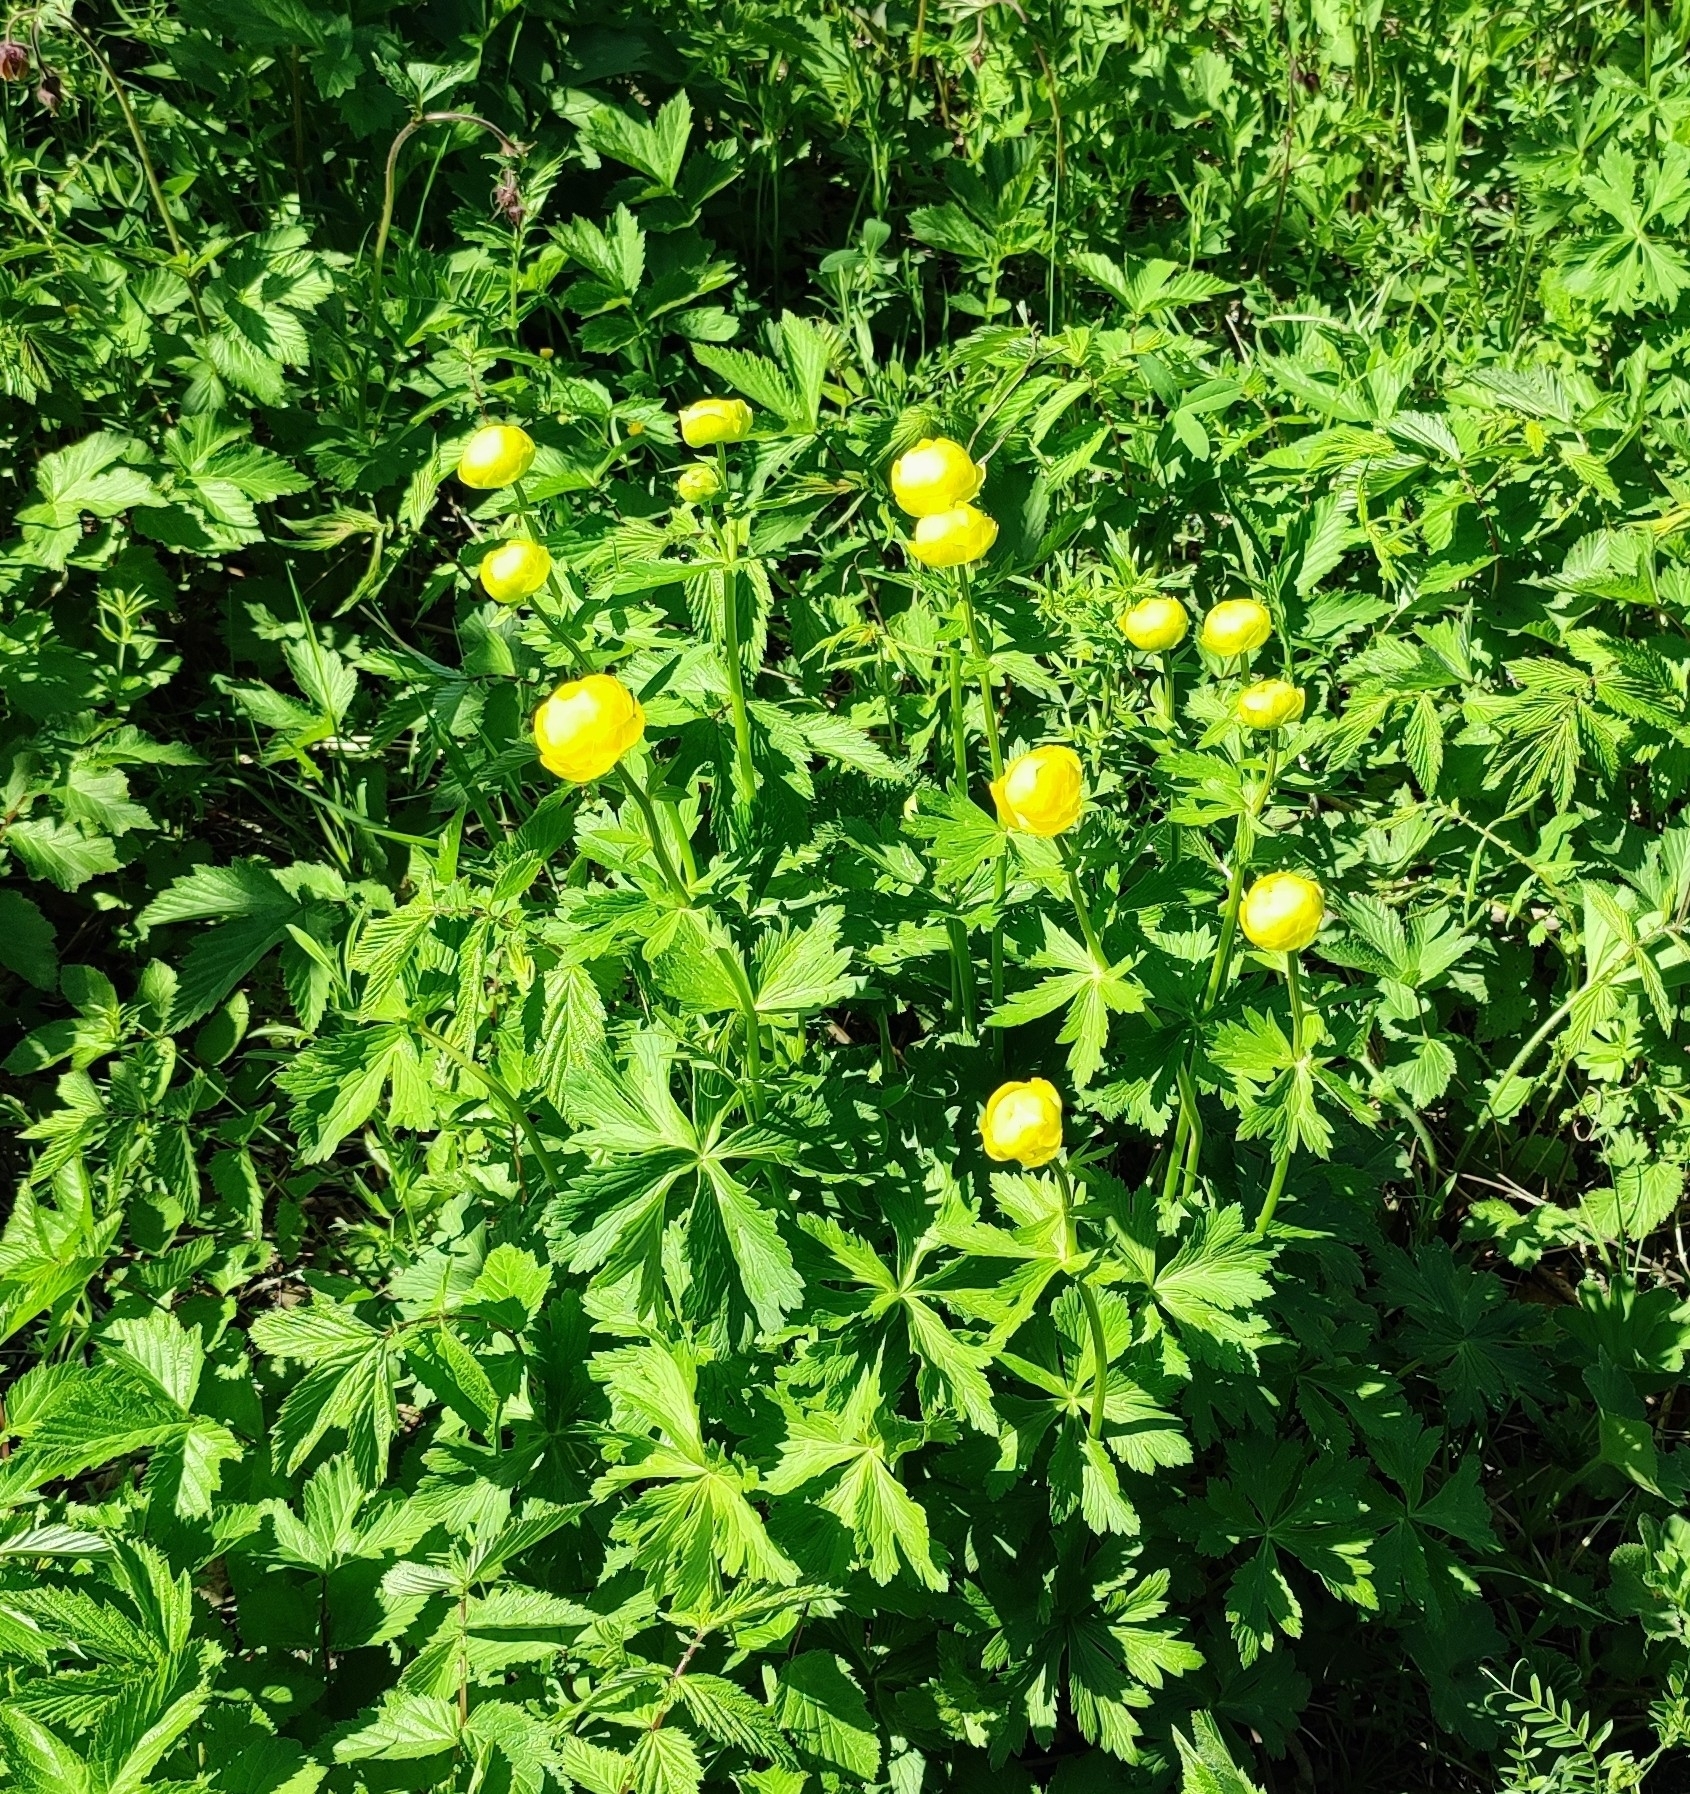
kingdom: Plantae
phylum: Tracheophyta
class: Magnoliopsida
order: Ranunculales
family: Ranunculaceae
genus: Trollius
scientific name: Trollius europaeus
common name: European globeflower
